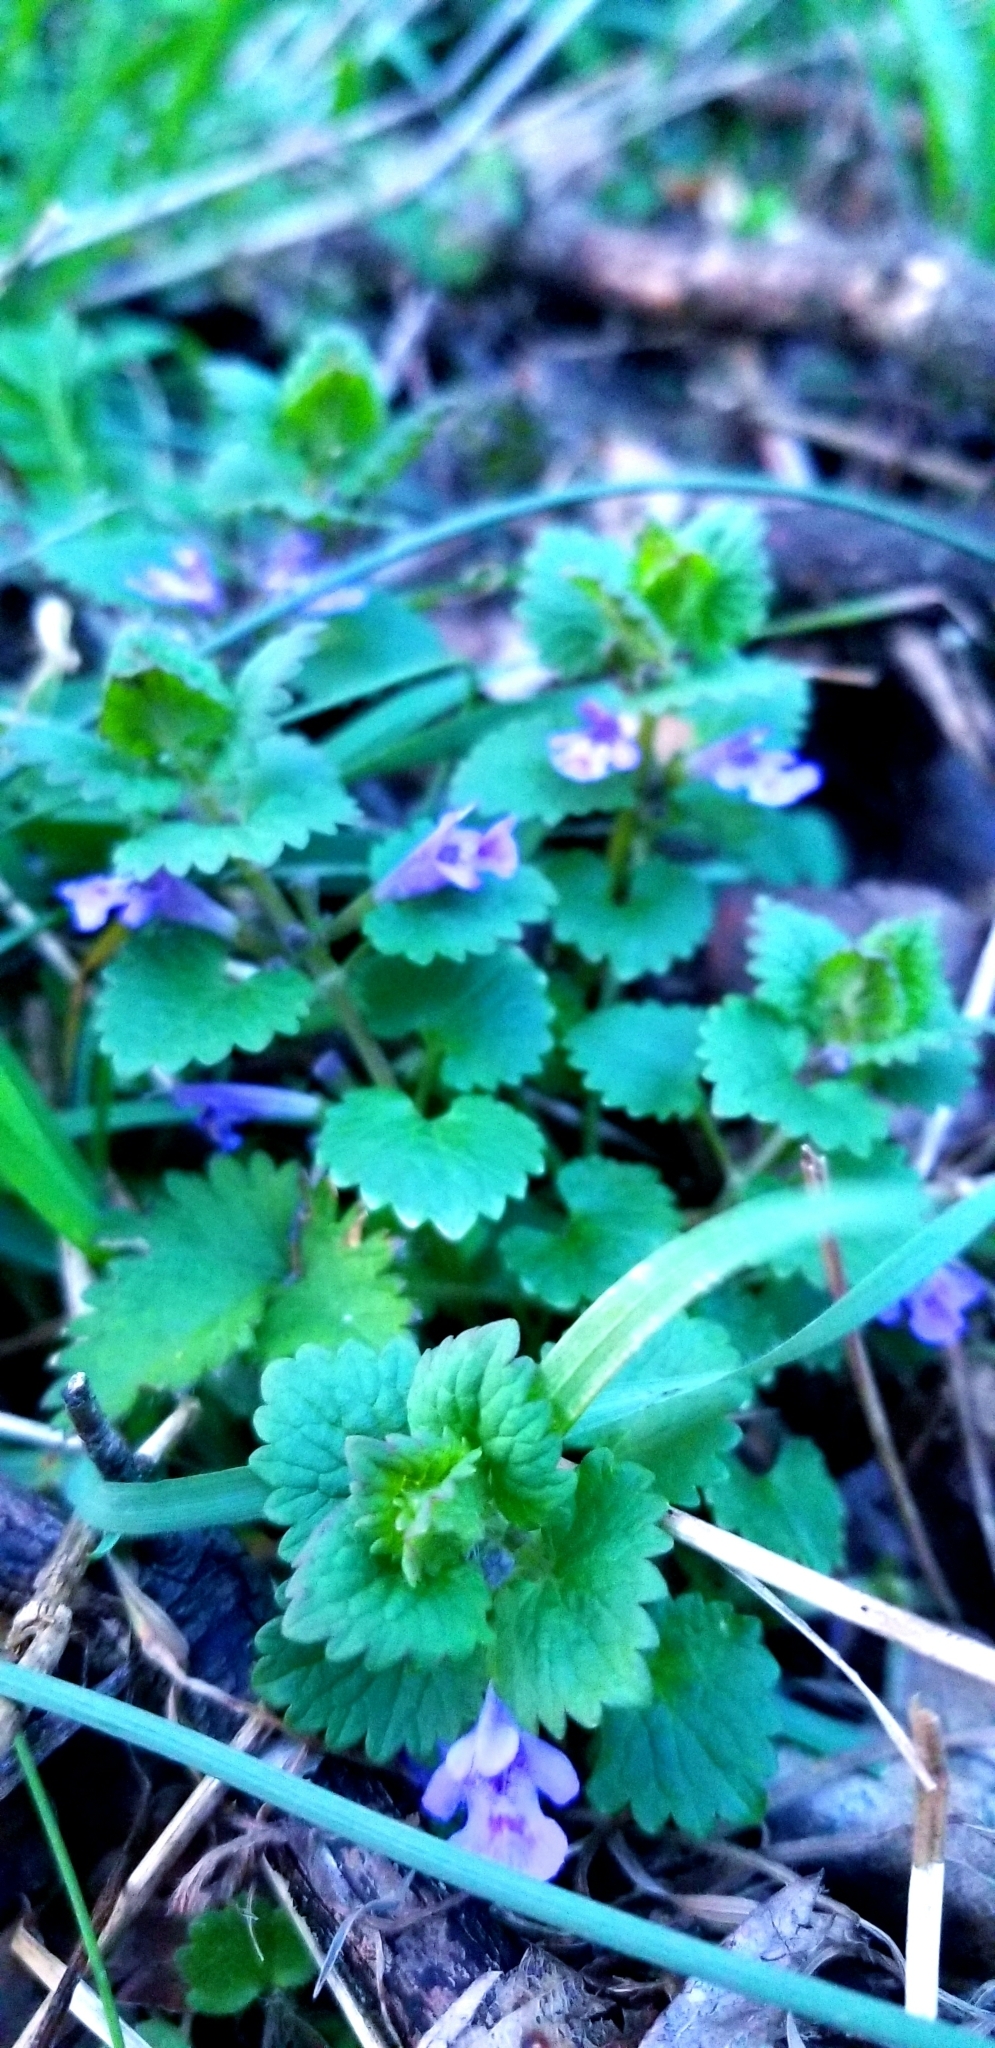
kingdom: Plantae
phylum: Tracheophyta
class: Magnoliopsida
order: Lamiales
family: Lamiaceae
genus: Glechoma
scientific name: Glechoma hederacea
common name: Ground ivy
